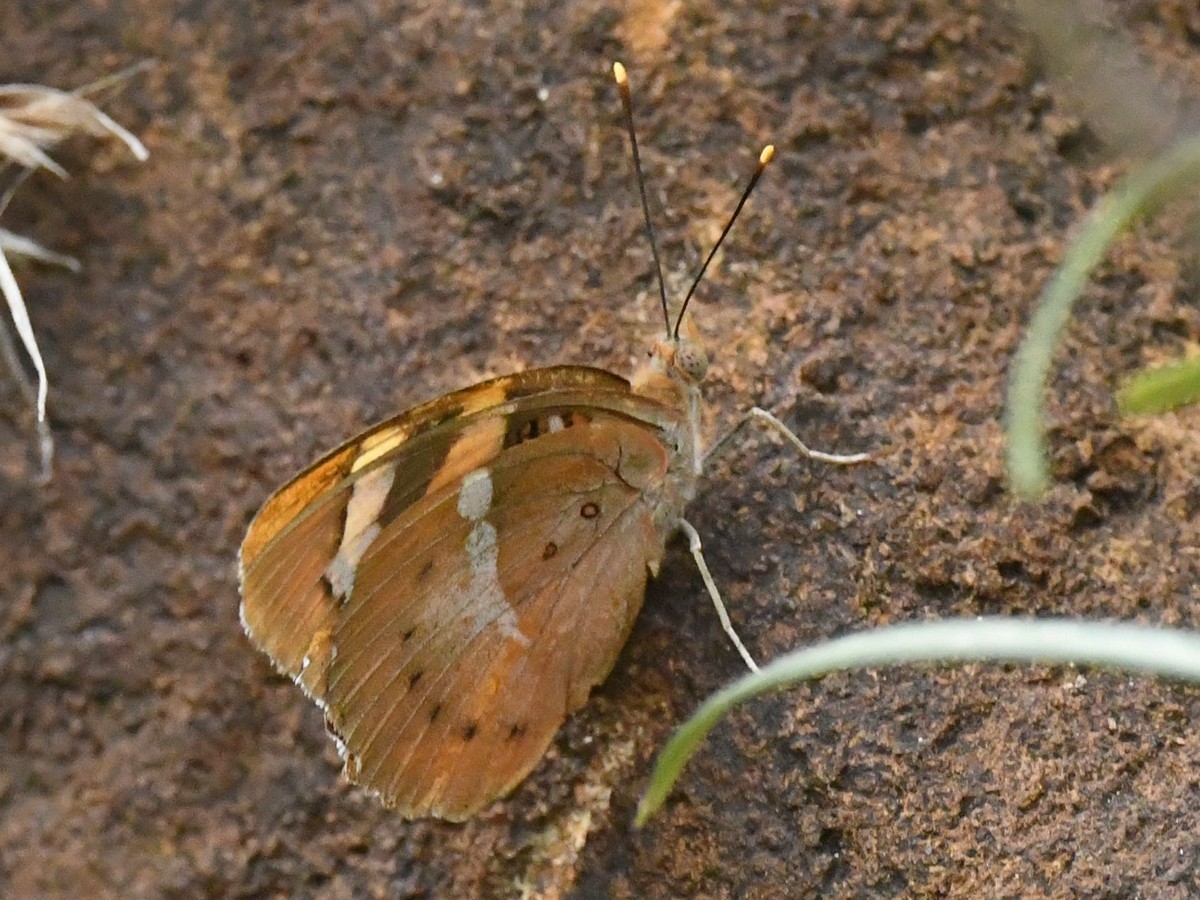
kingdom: Animalia
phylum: Arthropoda
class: Insecta
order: Lepidoptera
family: Nymphalidae
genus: Euthalia
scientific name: Euthalia nais
